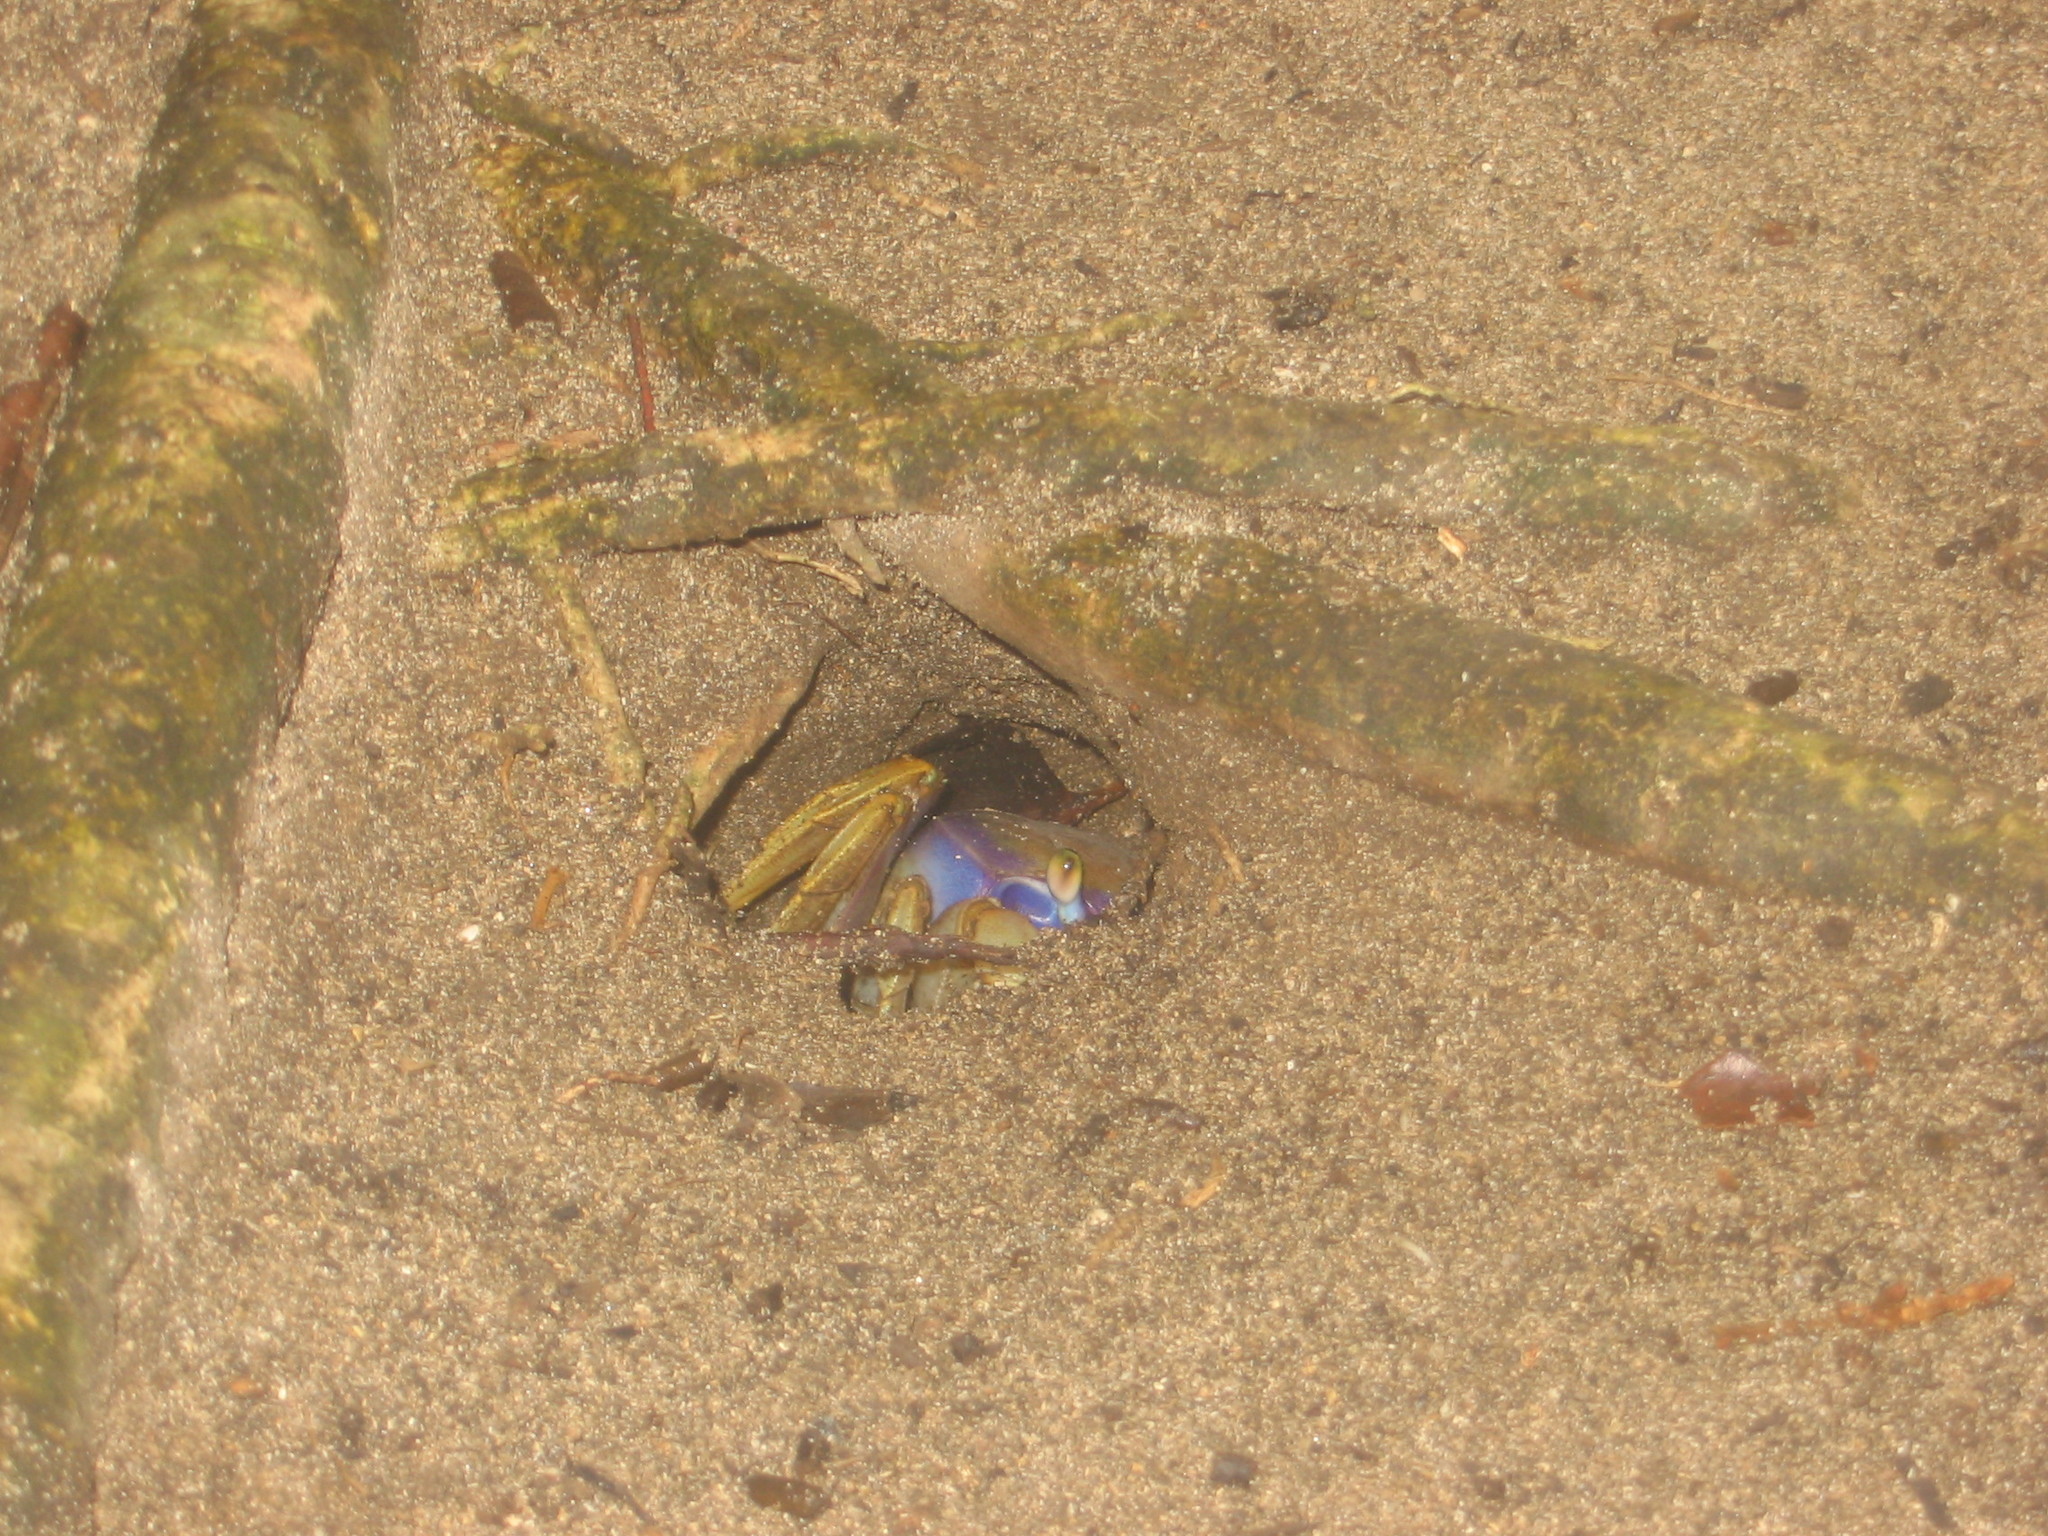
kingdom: Animalia
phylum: Arthropoda
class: Malacostraca
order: Decapoda
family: Gecarcinidae
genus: Cardisoma
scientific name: Cardisoma guanhumi
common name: Great land crab
